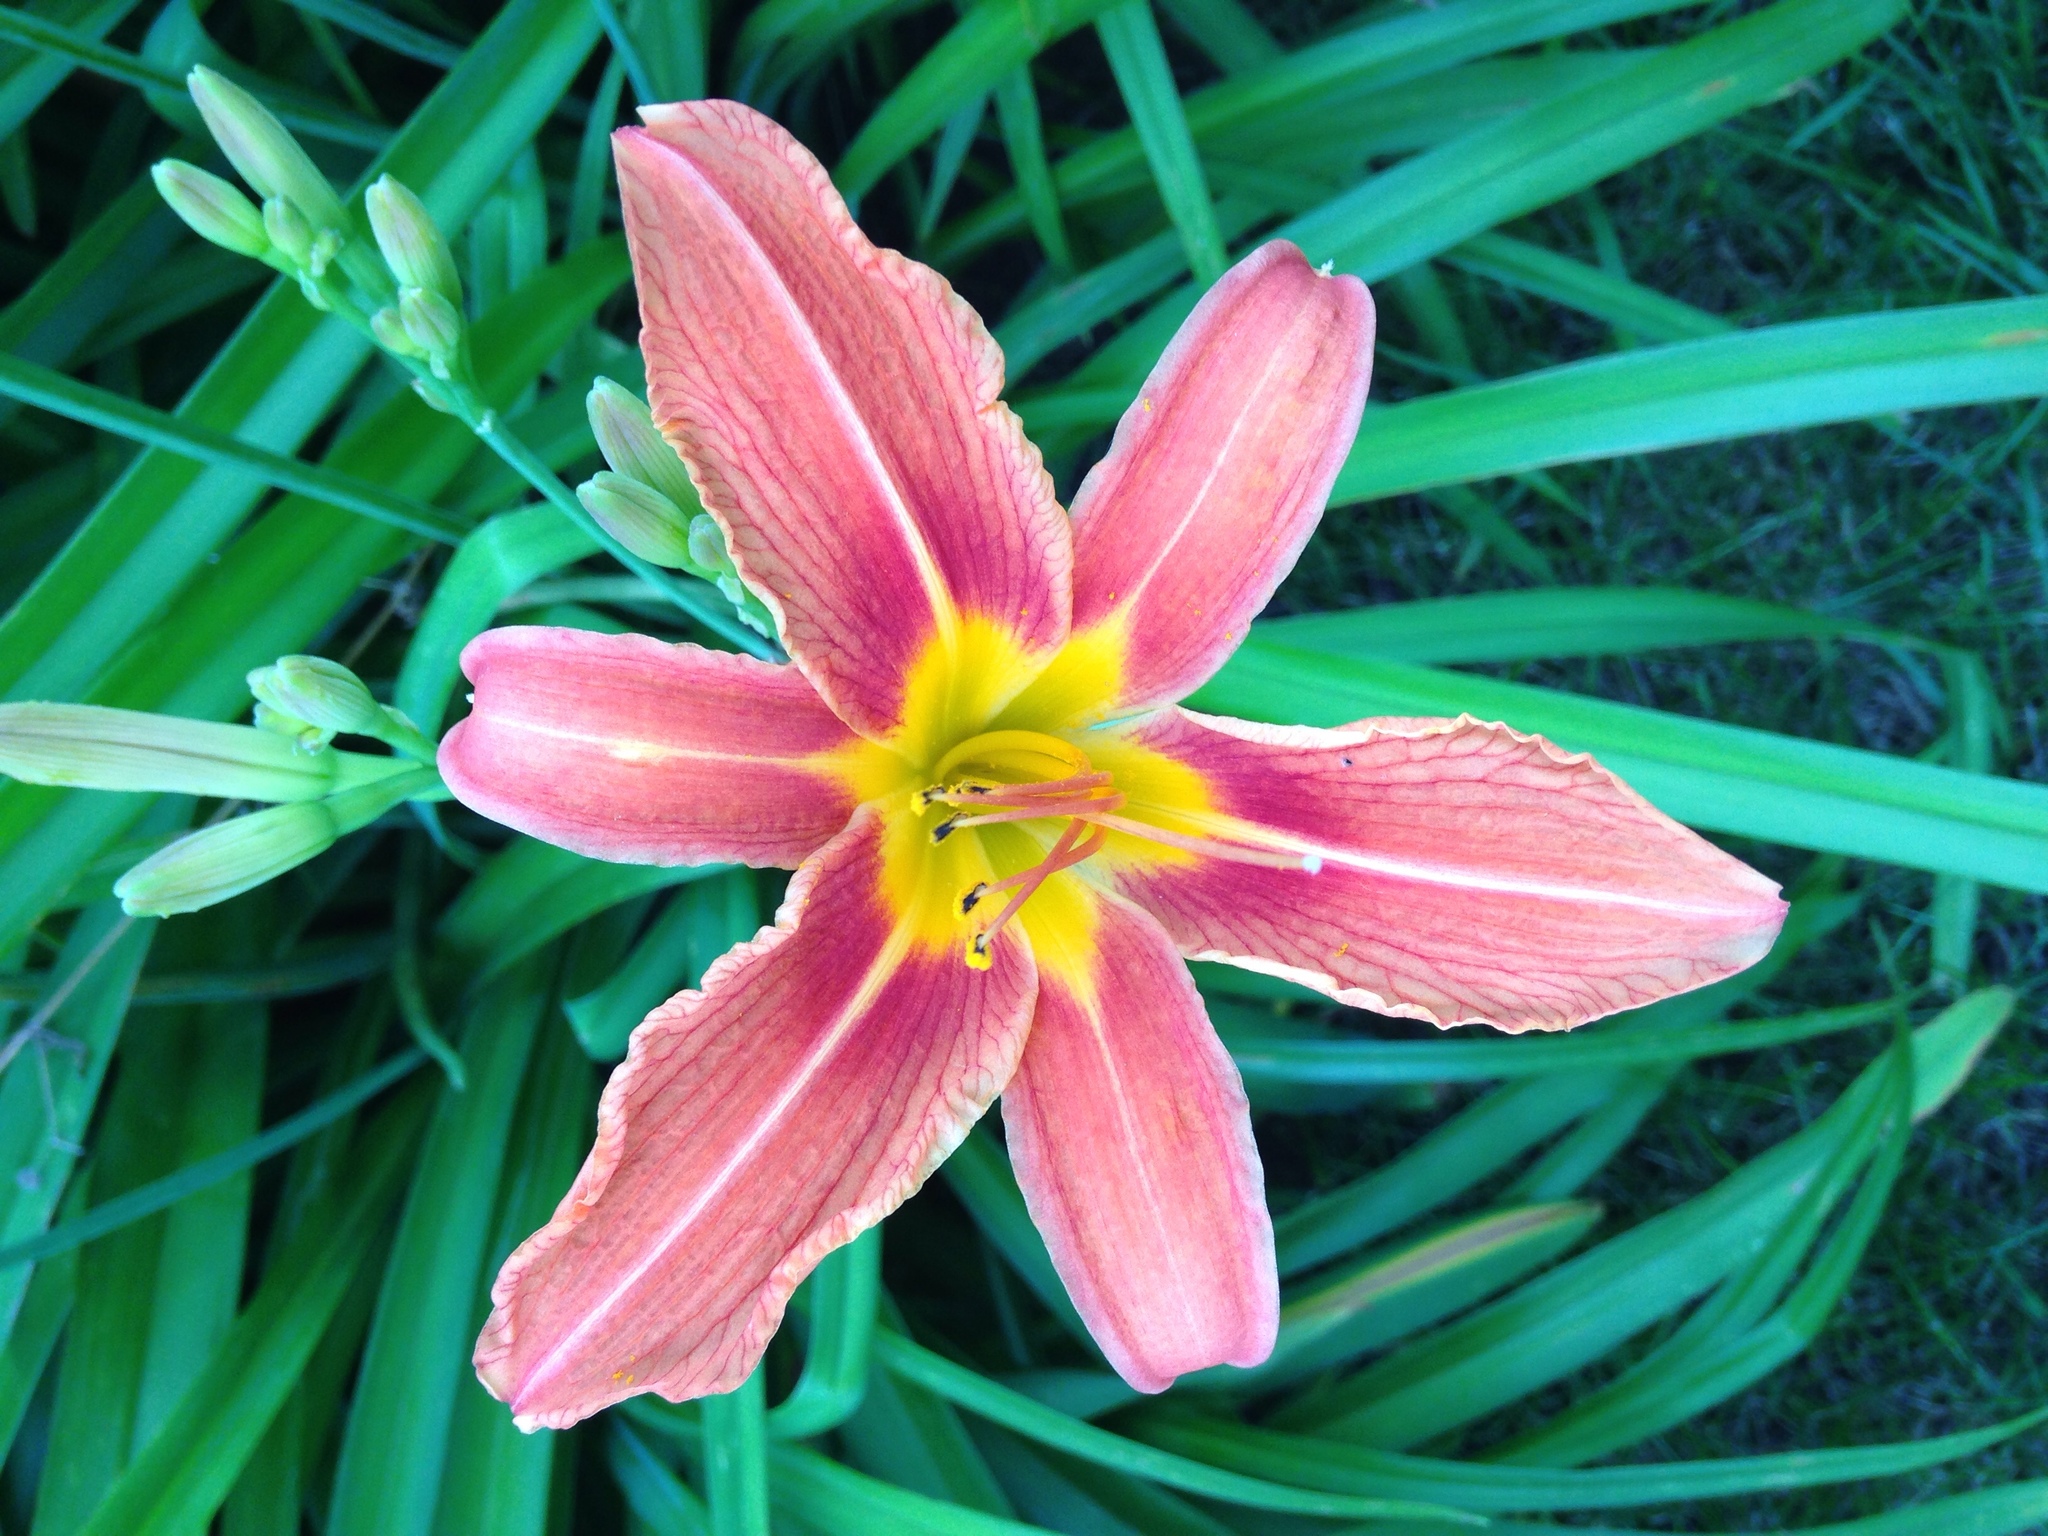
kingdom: Plantae
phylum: Tracheophyta
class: Liliopsida
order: Asparagales
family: Asphodelaceae
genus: Hemerocallis
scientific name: Hemerocallis fulva
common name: Orange day-lily
